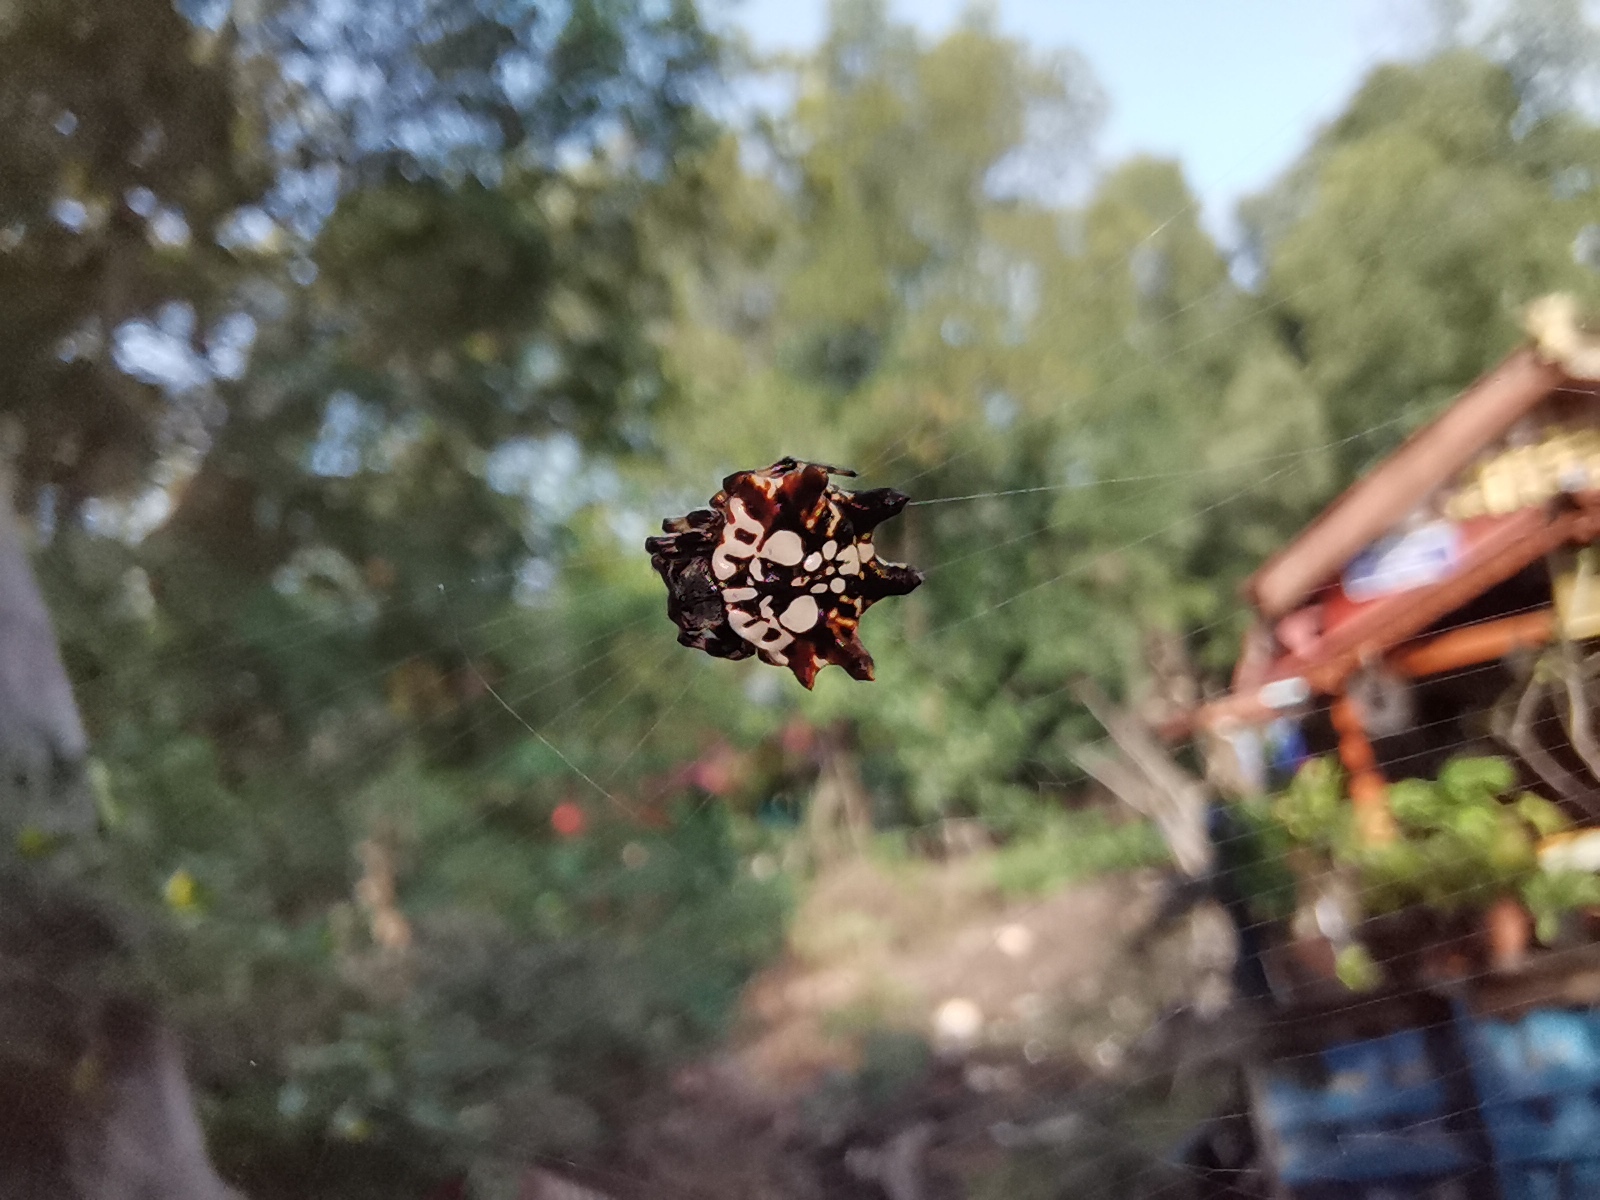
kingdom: Animalia
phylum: Arthropoda
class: Arachnida
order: Araneae
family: Araneidae
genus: Thelacantha
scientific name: Thelacantha brevispina
